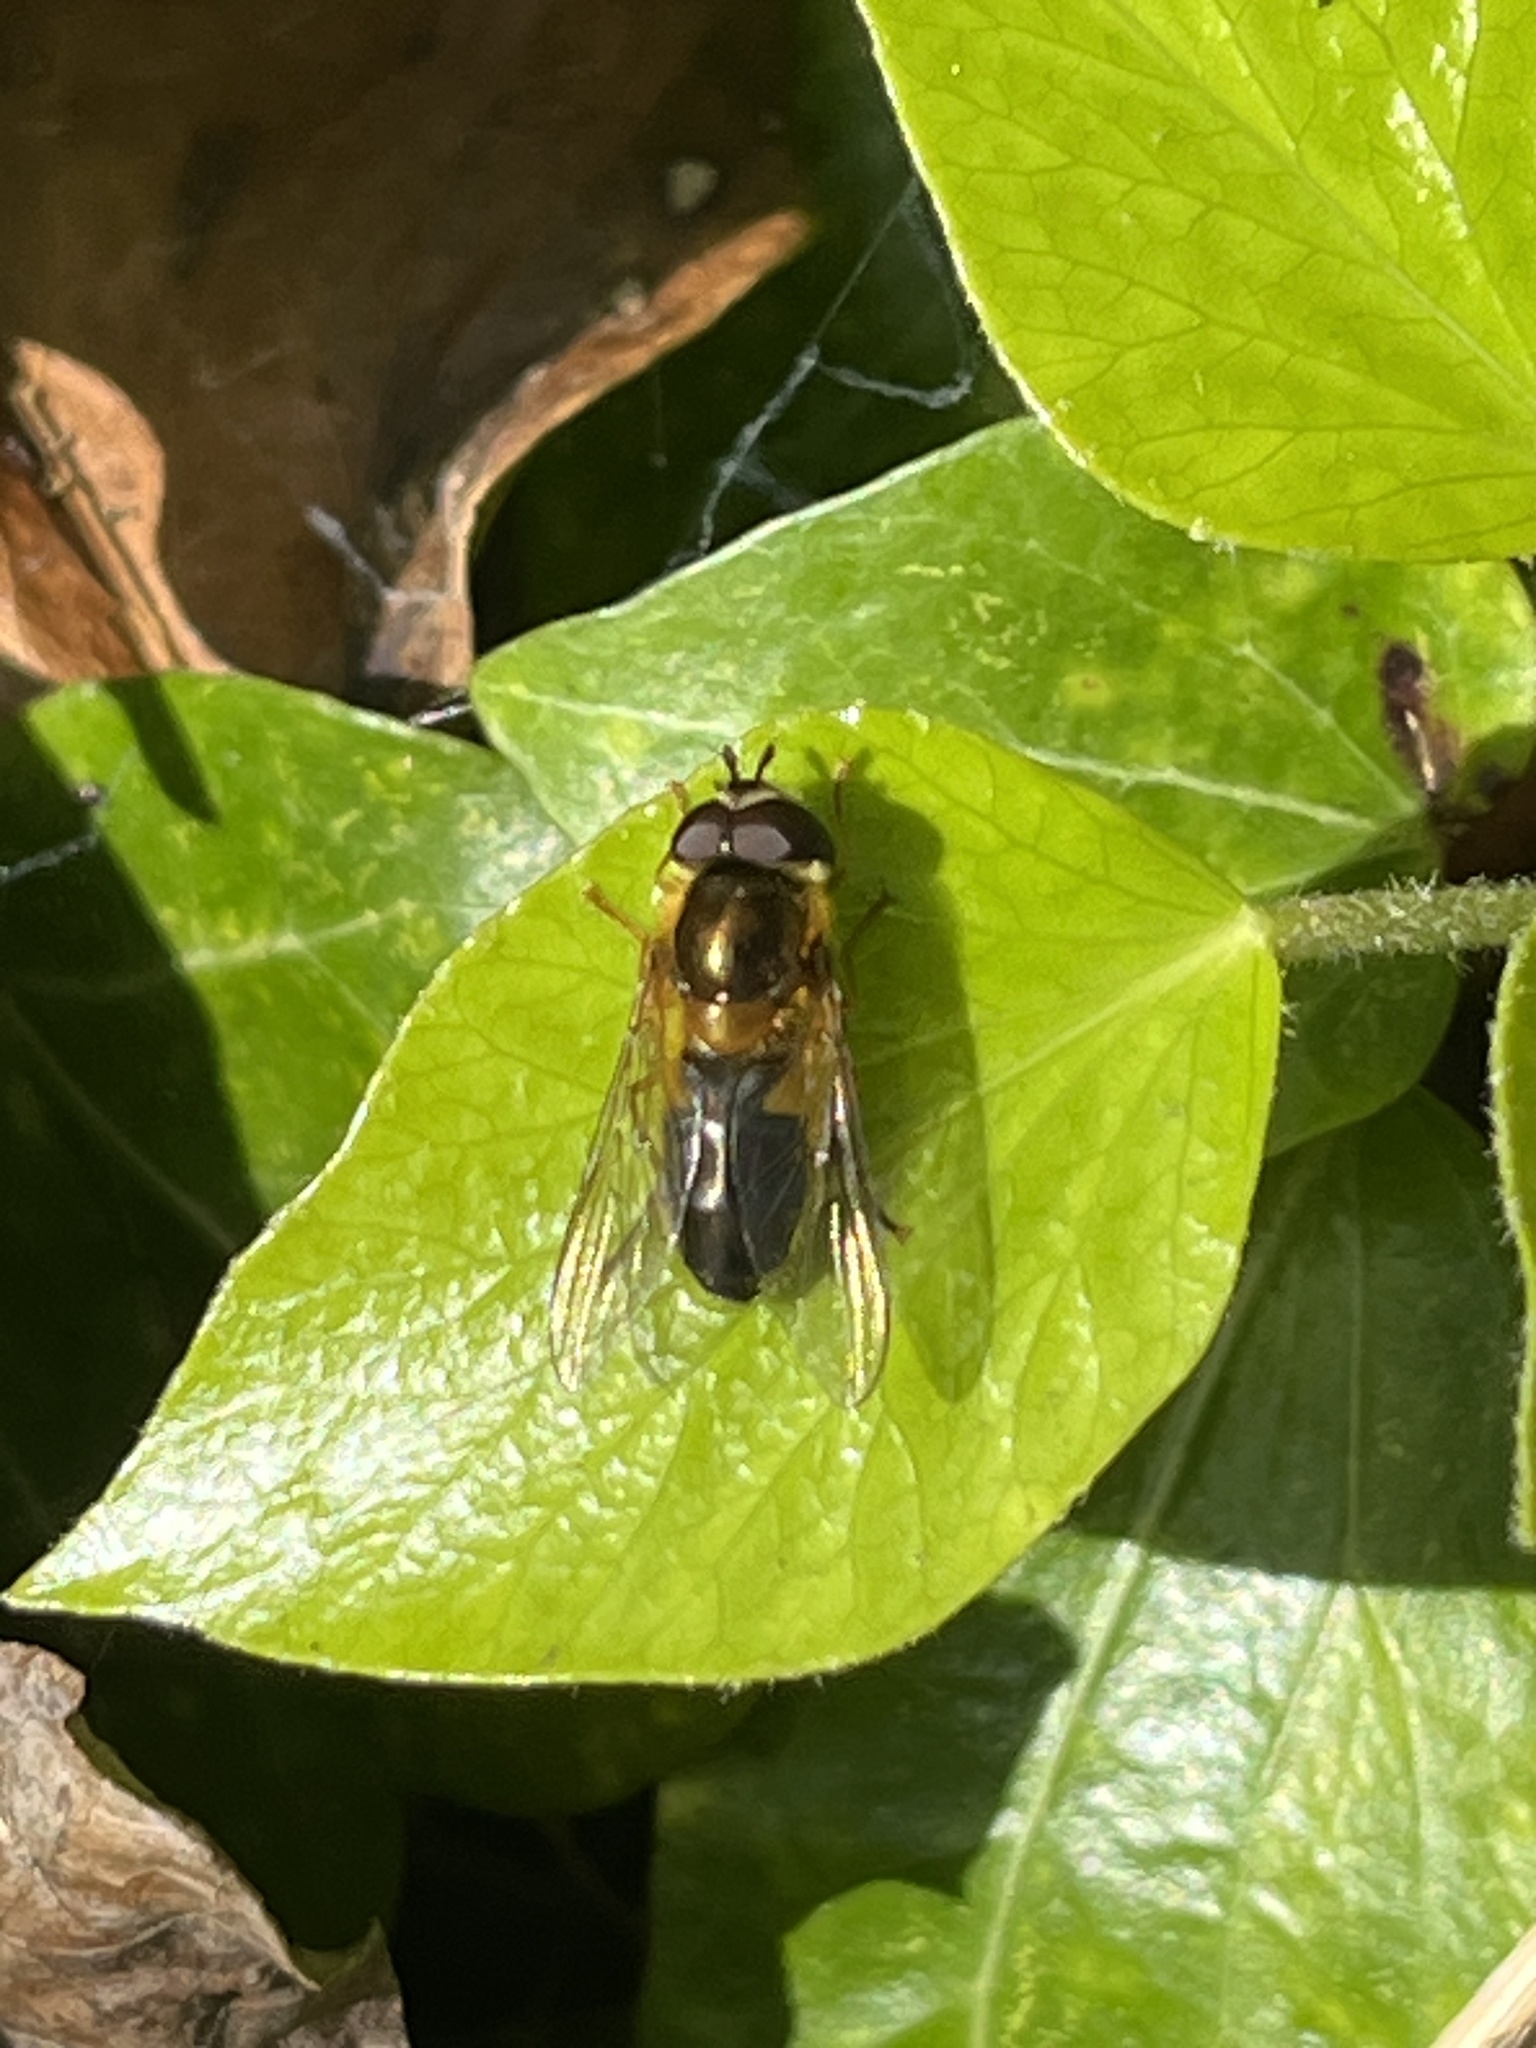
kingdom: Animalia
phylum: Arthropoda
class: Insecta
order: Diptera
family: Syrphidae
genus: Epistrophe
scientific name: Epistrophe eligans
